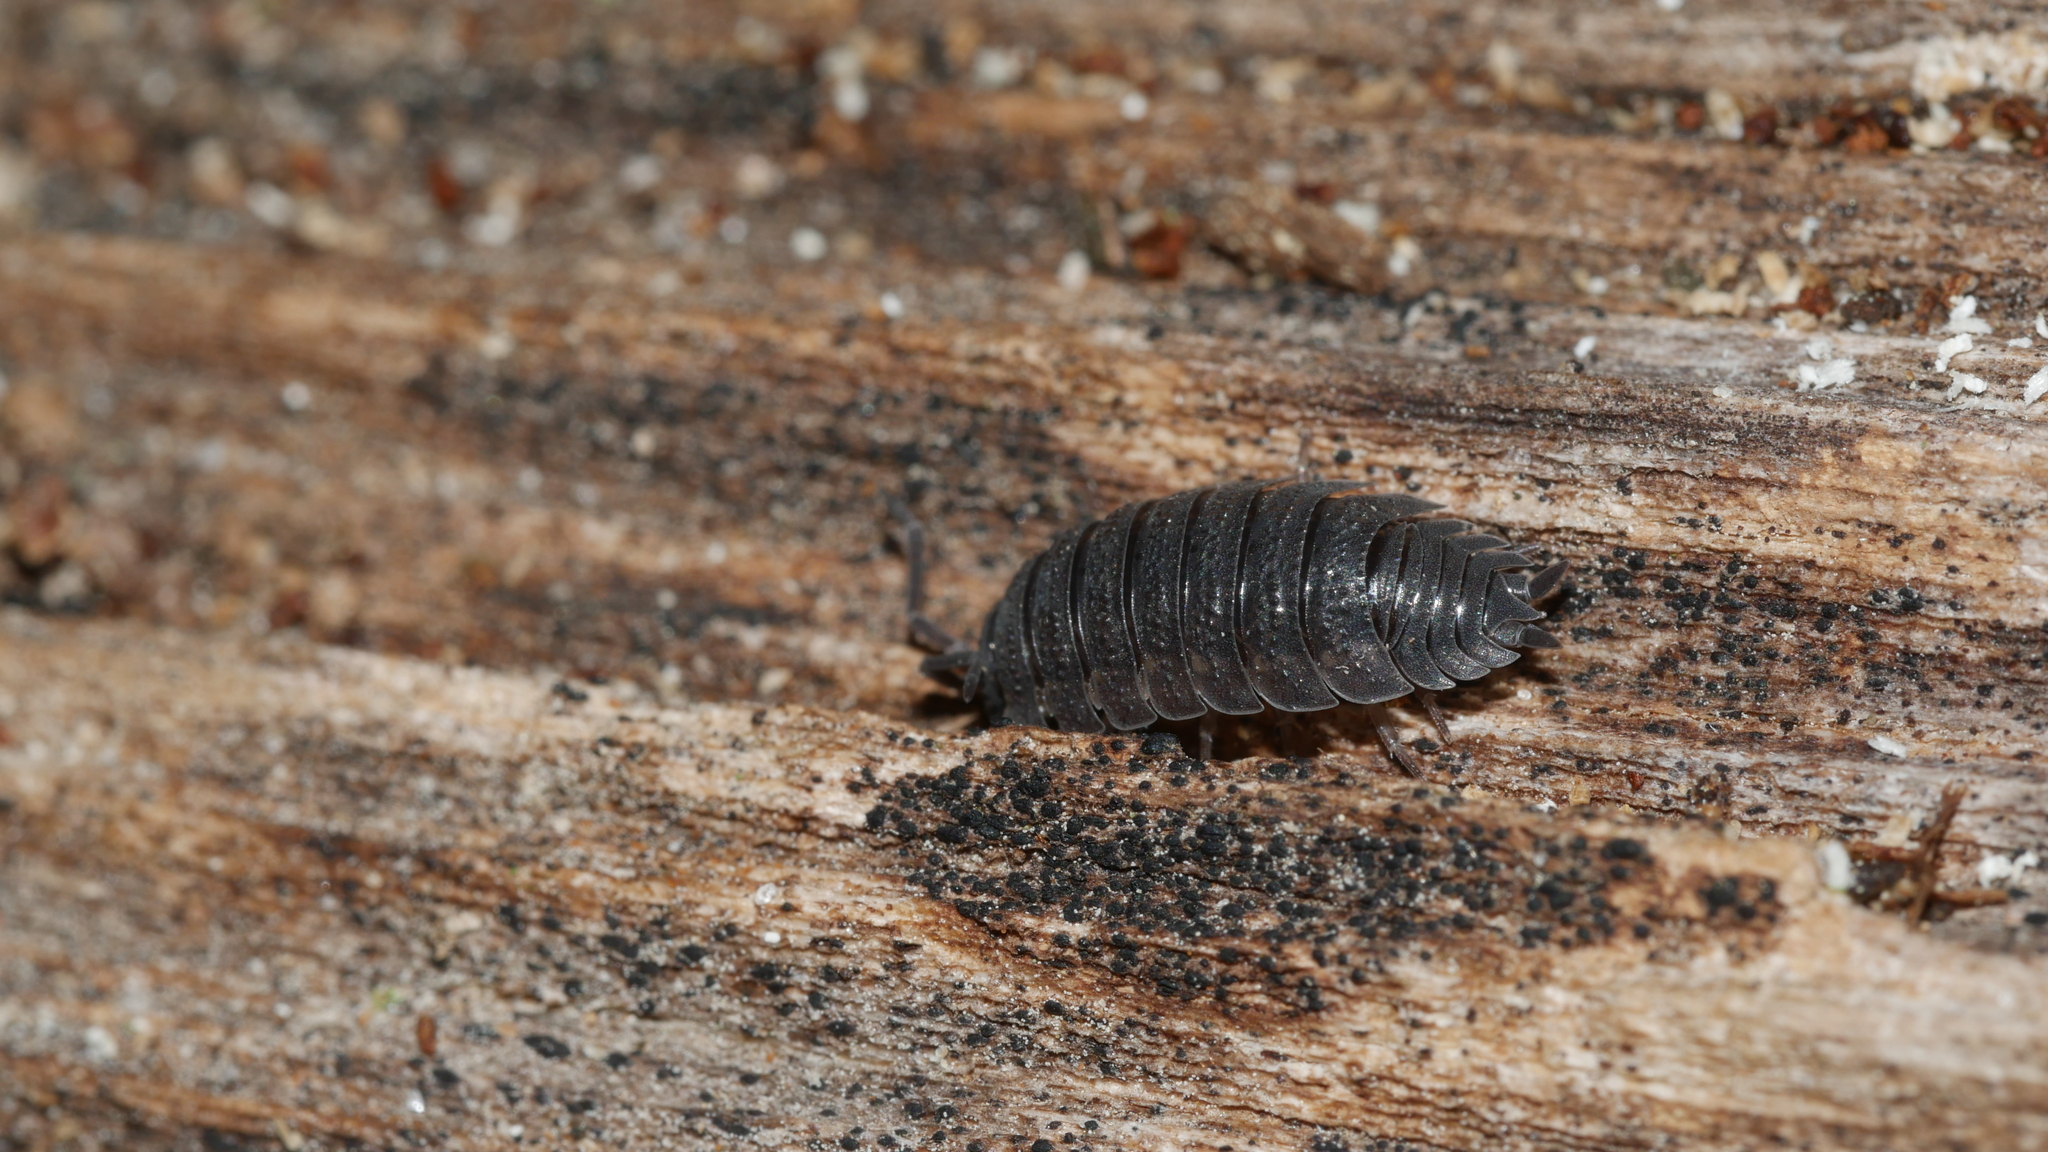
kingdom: Animalia
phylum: Arthropoda
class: Malacostraca
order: Isopoda
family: Porcellionidae
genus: Porcellio
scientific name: Porcellio scaber
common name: Common rough woodlouse
